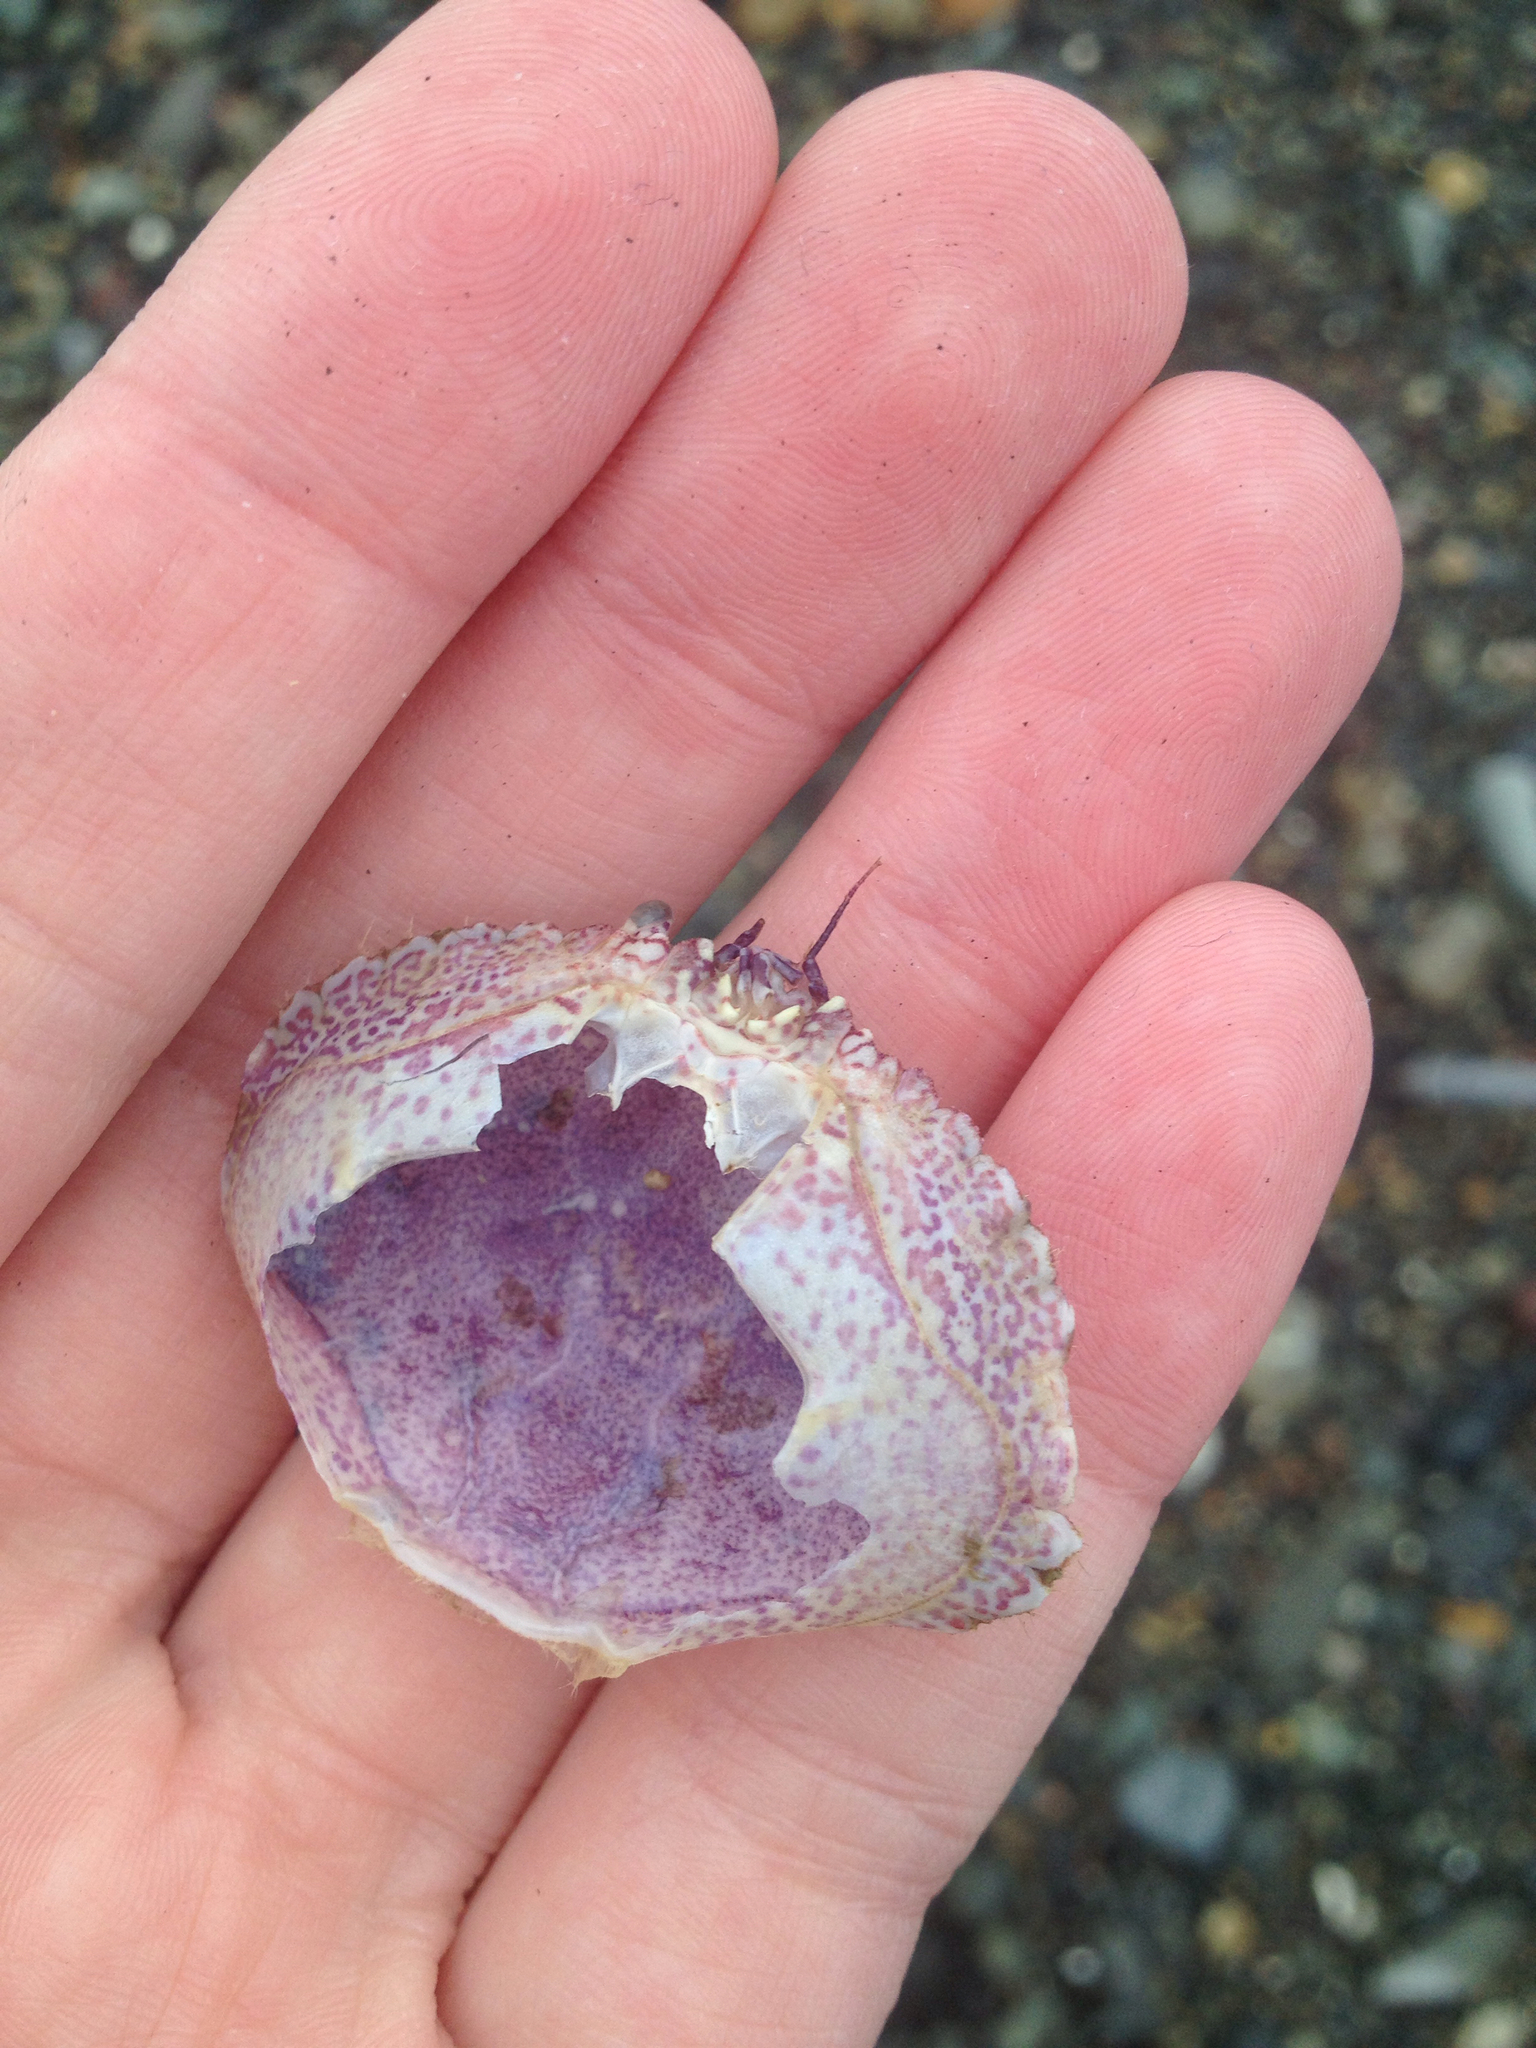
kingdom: Animalia
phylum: Arthropoda
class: Malacostraca
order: Decapoda
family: Cancridae
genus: Cancer
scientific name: Cancer irroratus
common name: Atlantic rock crab
